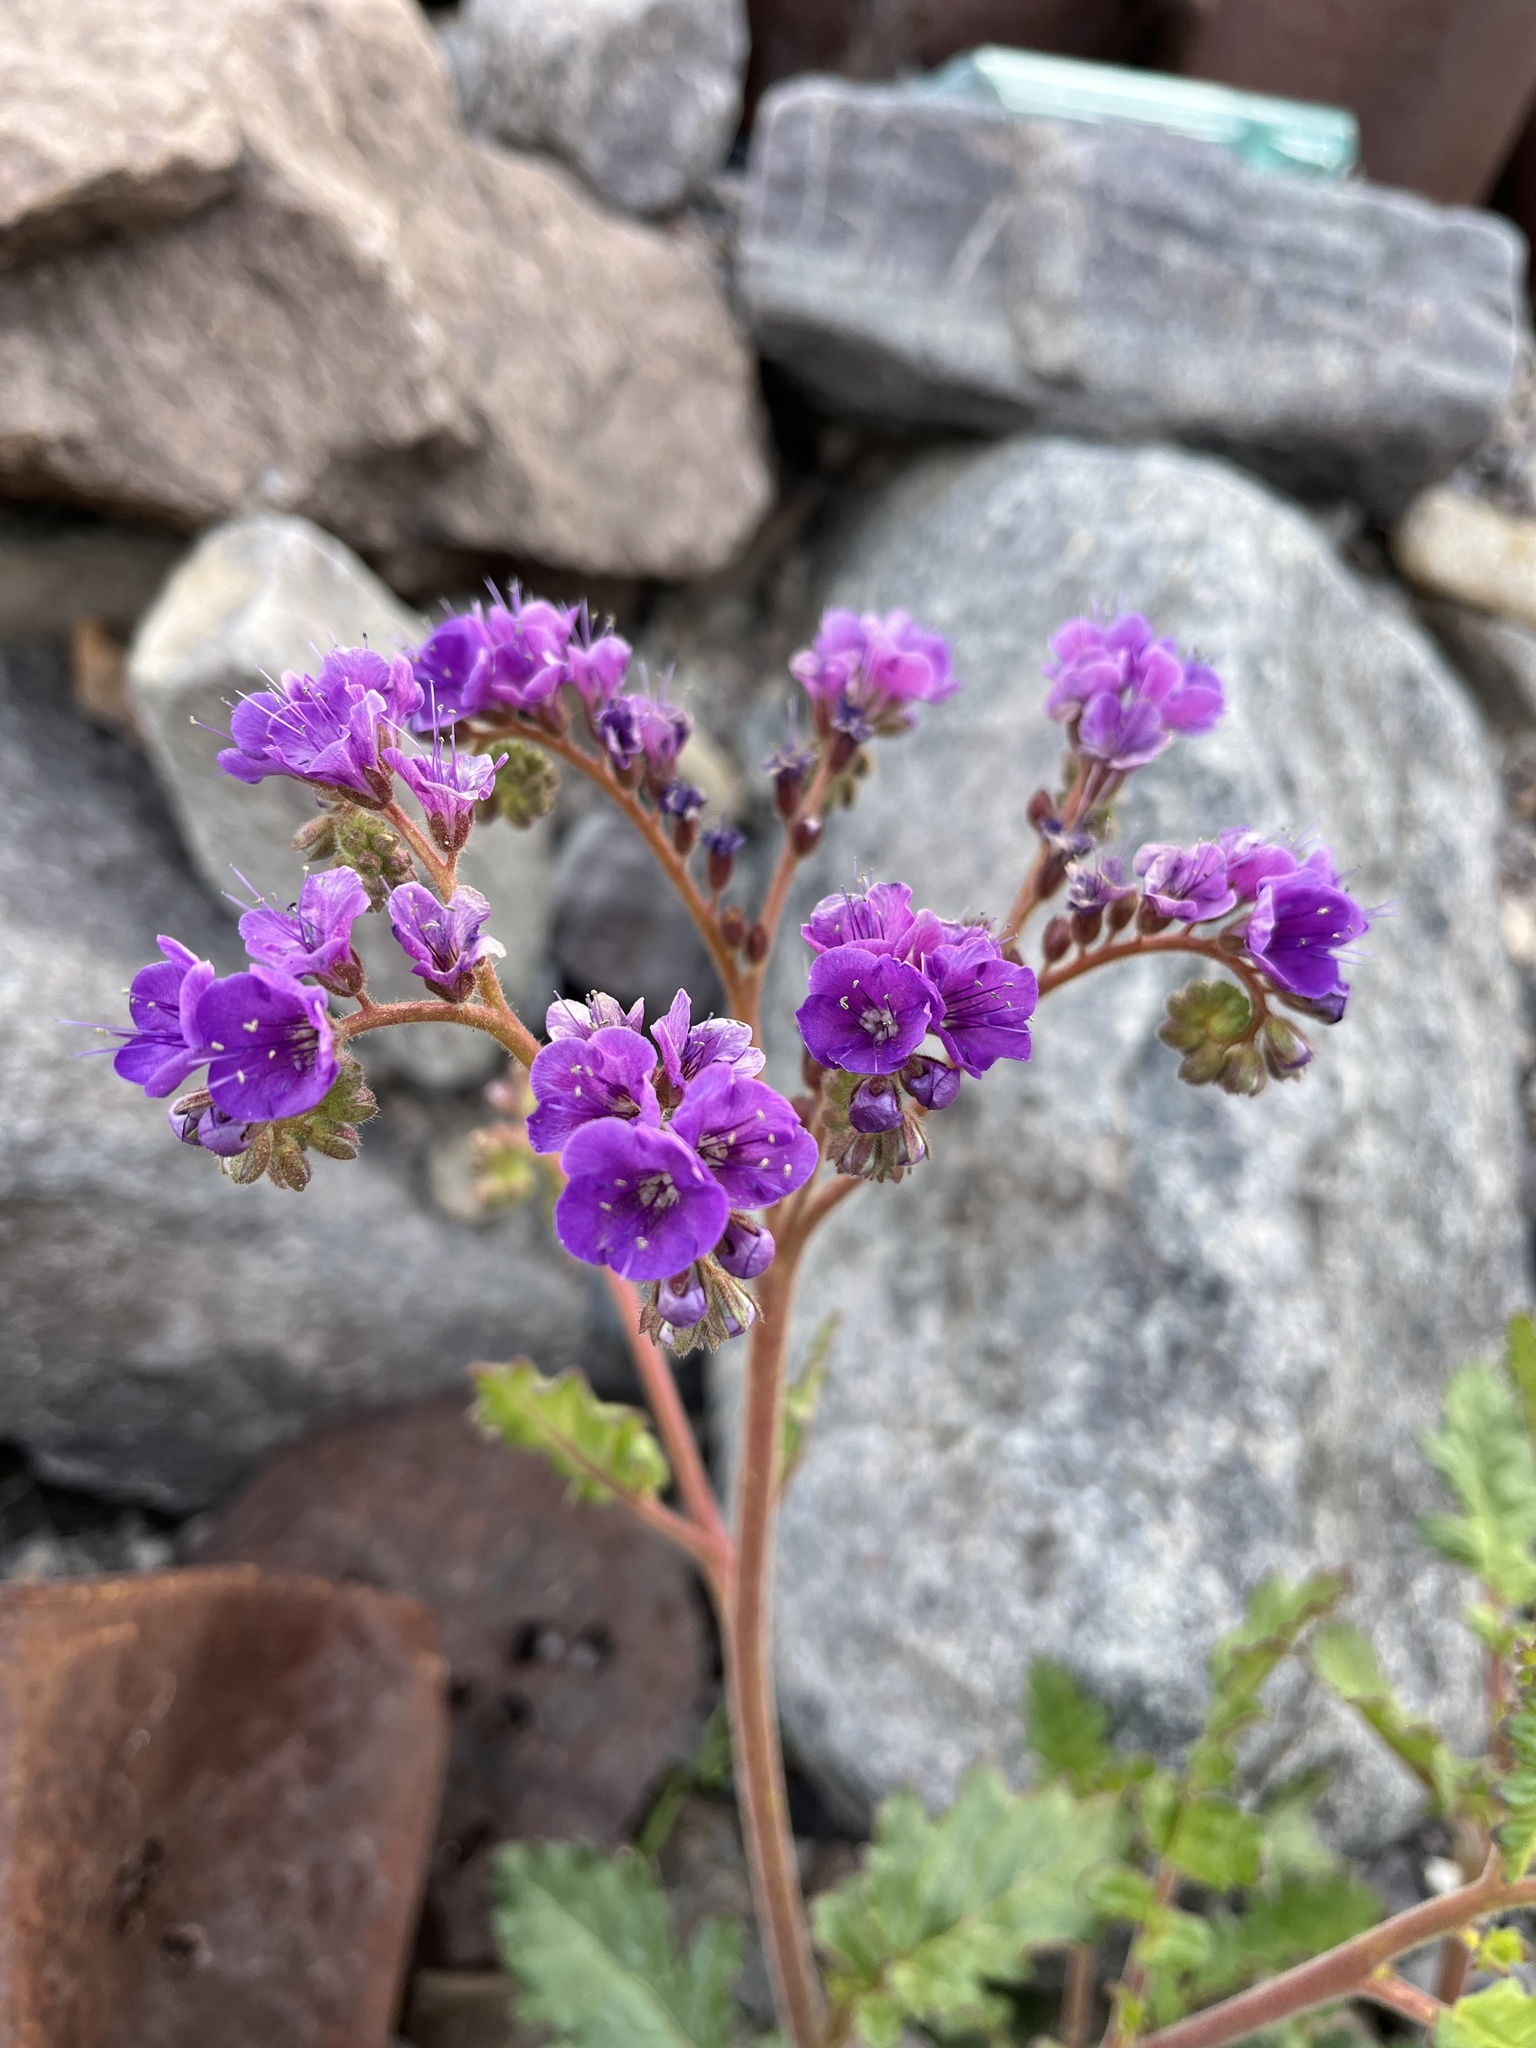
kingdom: Plantae
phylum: Tracheophyta
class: Magnoliopsida
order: Boraginales
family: Hydrophyllaceae
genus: Phacelia
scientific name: Phacelia crenulata
